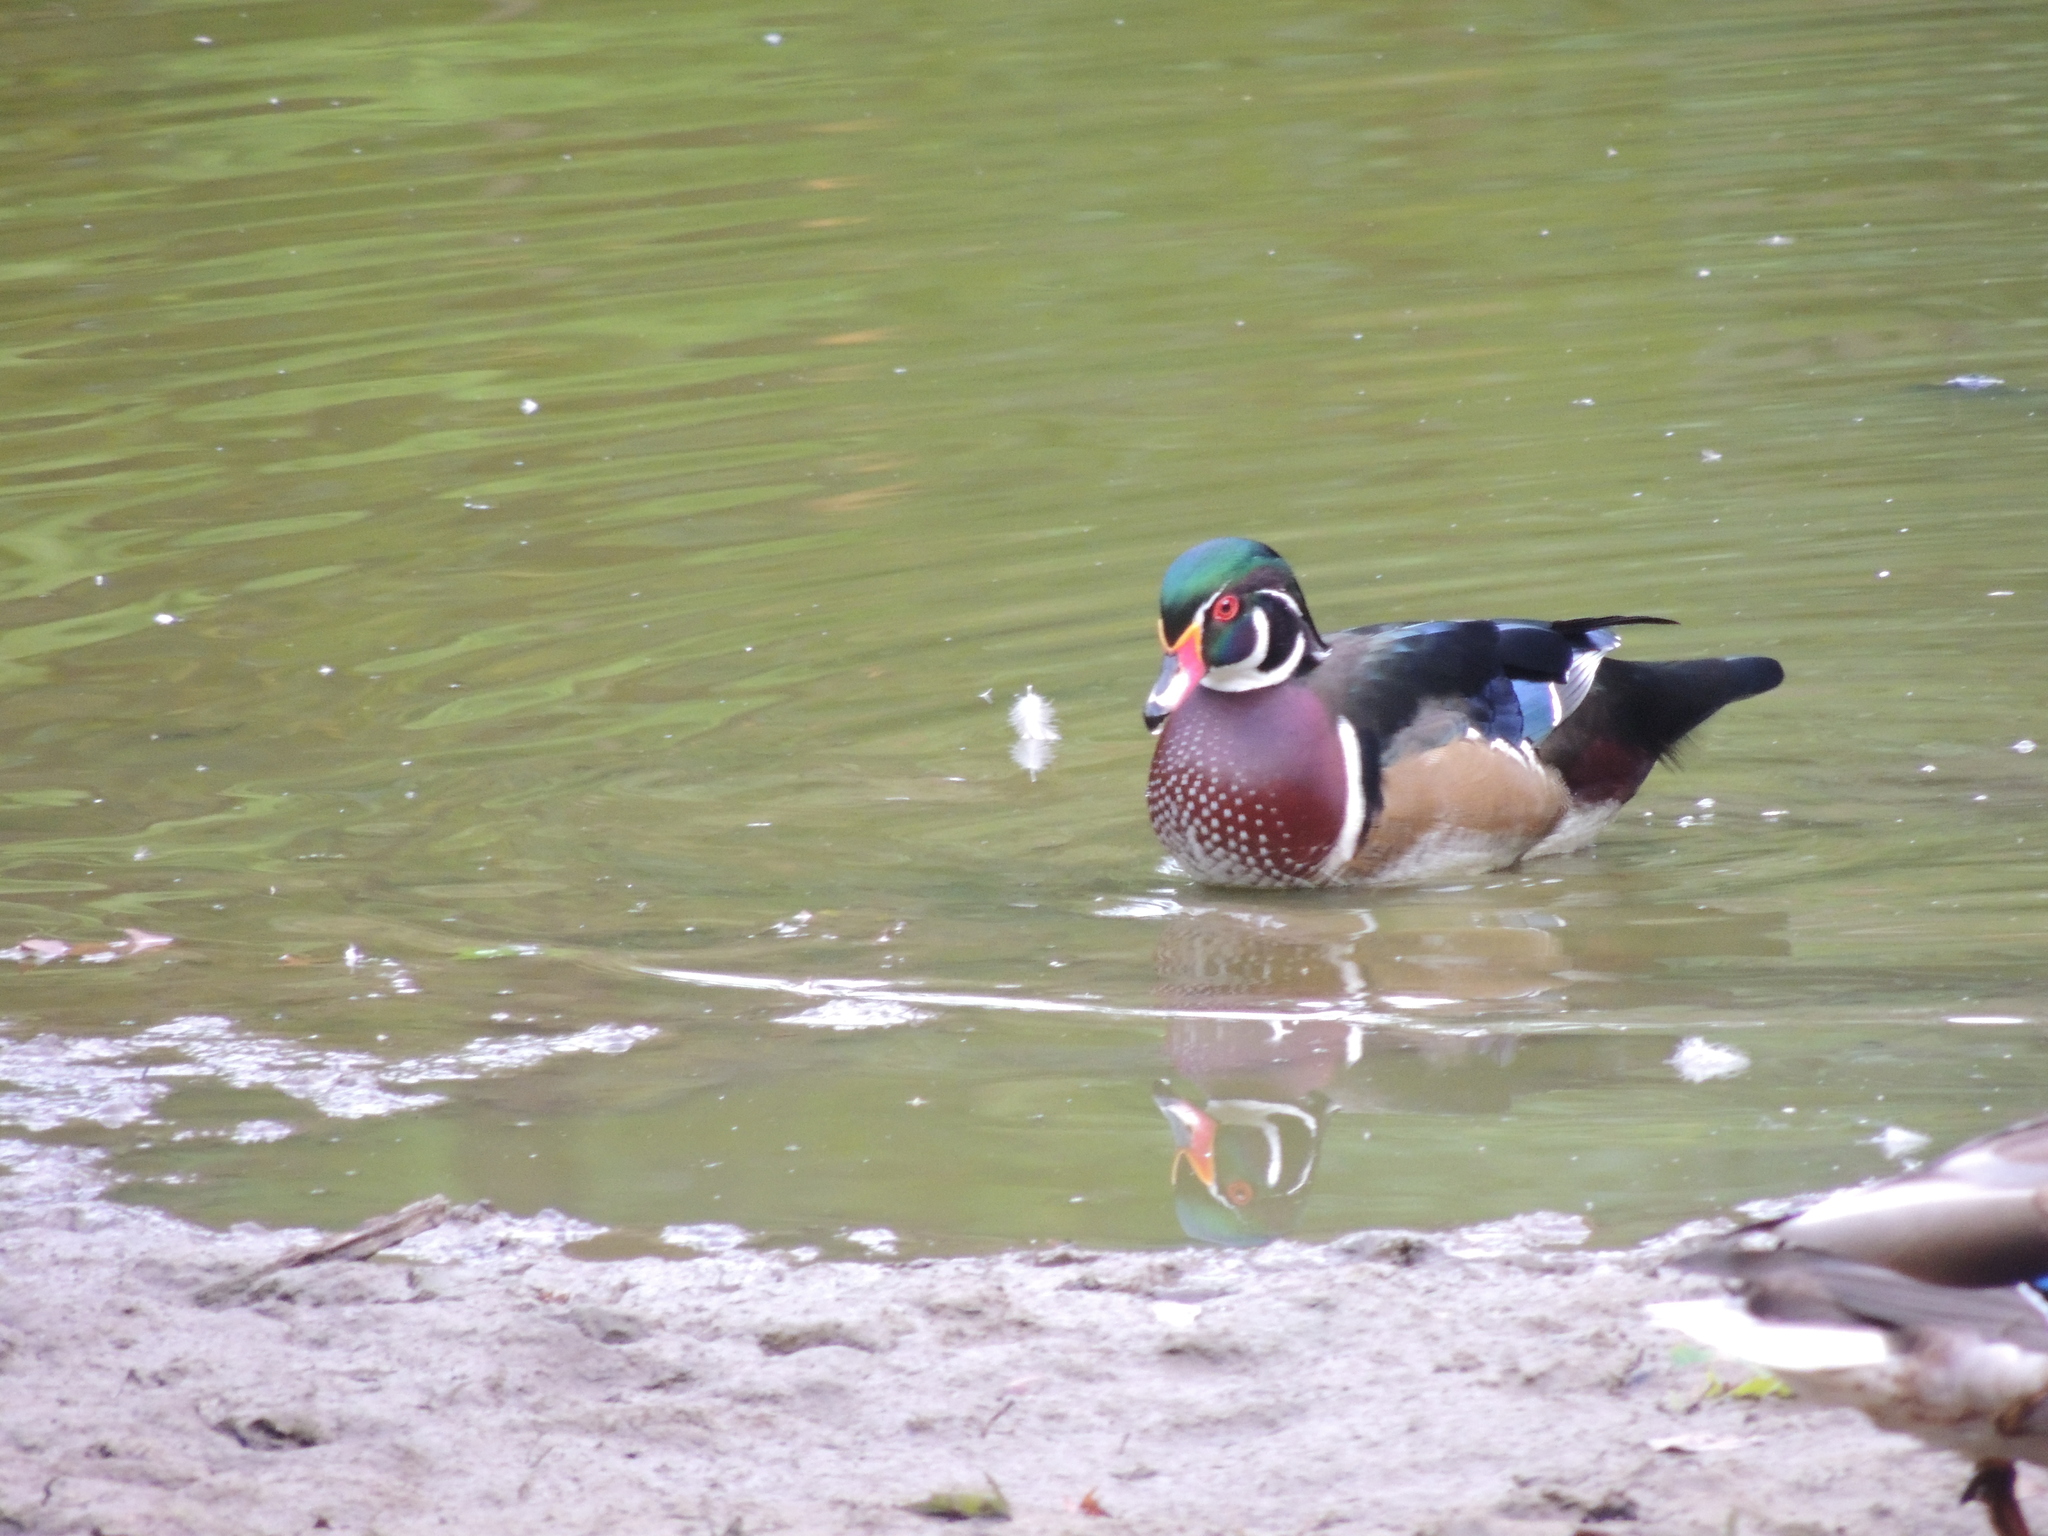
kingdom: Animalia
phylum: Chordata
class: Aves
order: Anseriformes
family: Anatidae
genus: Aix
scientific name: Aix sponsa
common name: Wood duck
